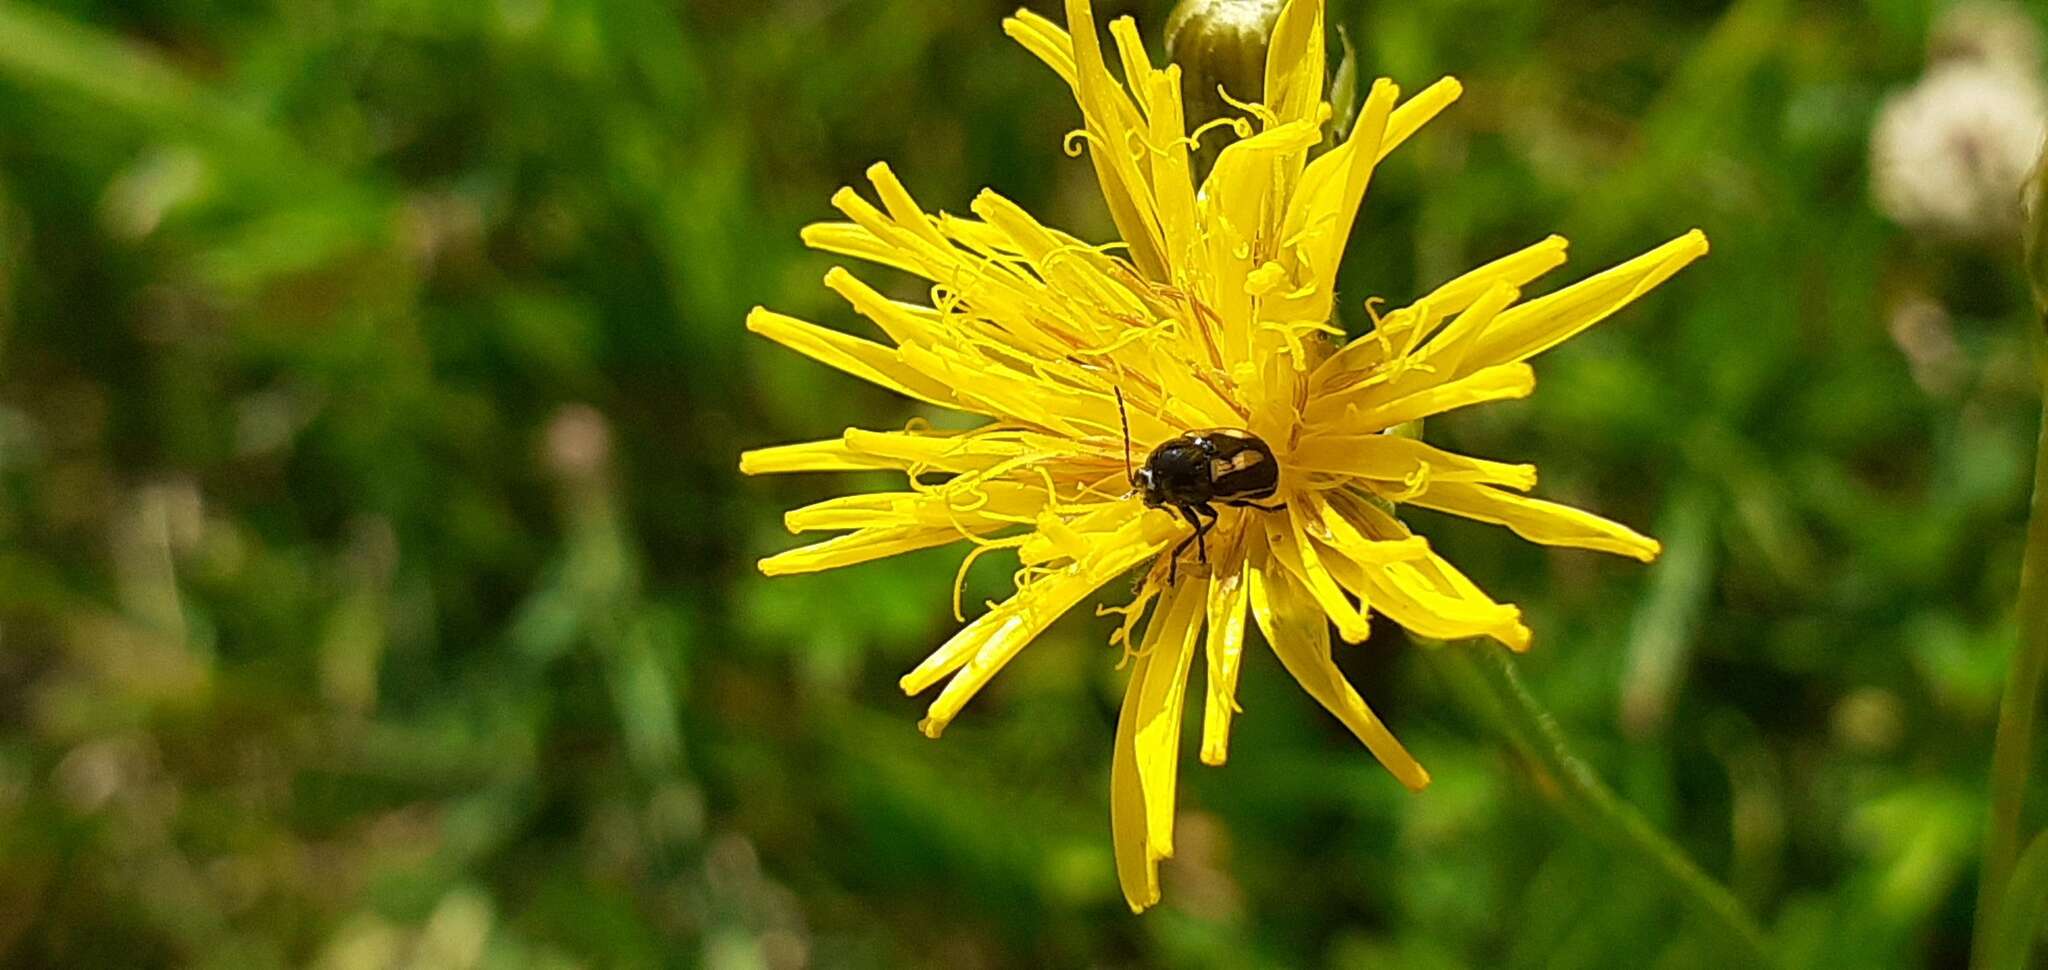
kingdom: Animalia
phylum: Arthropoda
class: Insecta
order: Coleoptera
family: Chrysomelidae
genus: Acalymma
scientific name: Acalymma vittatum
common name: Striped cucumber beetle
